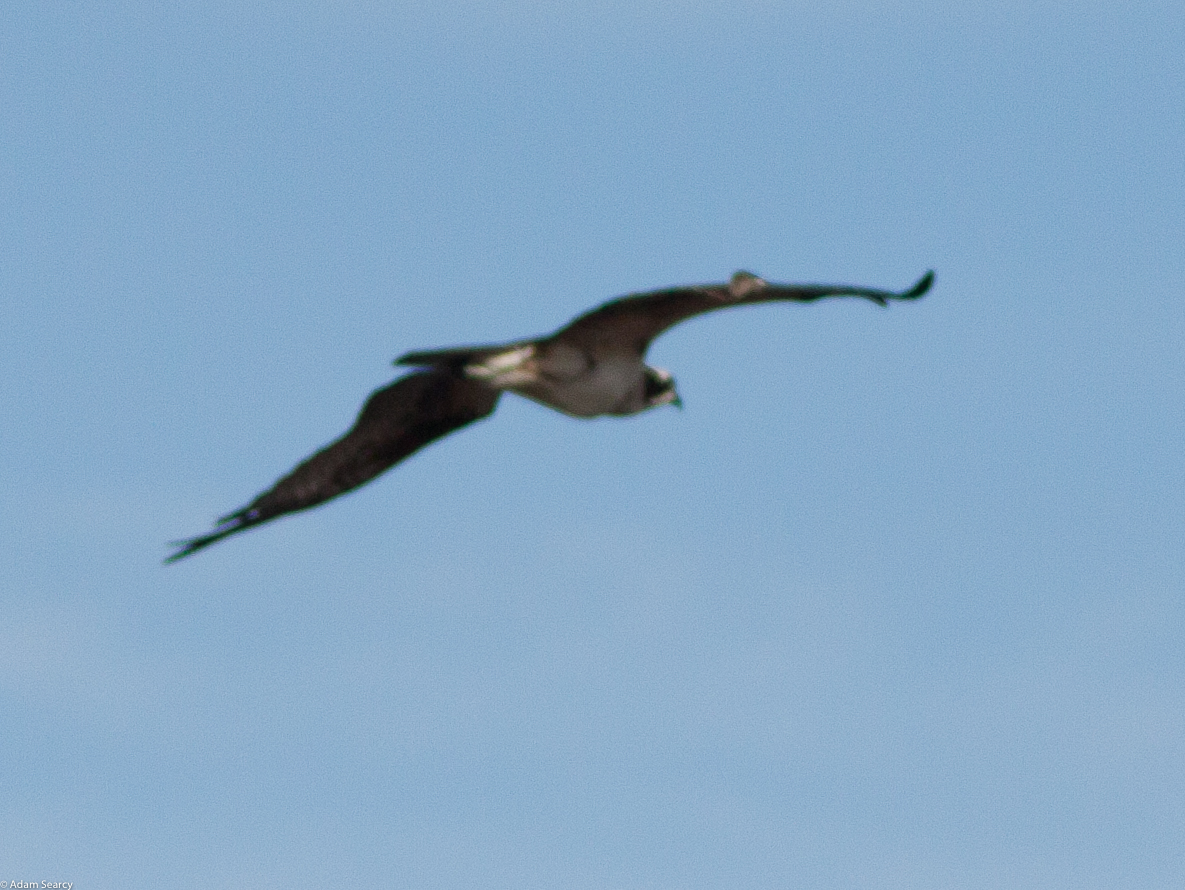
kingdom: Animalia
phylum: Chordata
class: Aves
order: Accipitriformes
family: Pandionidae
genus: Pandion
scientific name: Pandion haliaetus
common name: Osprey
